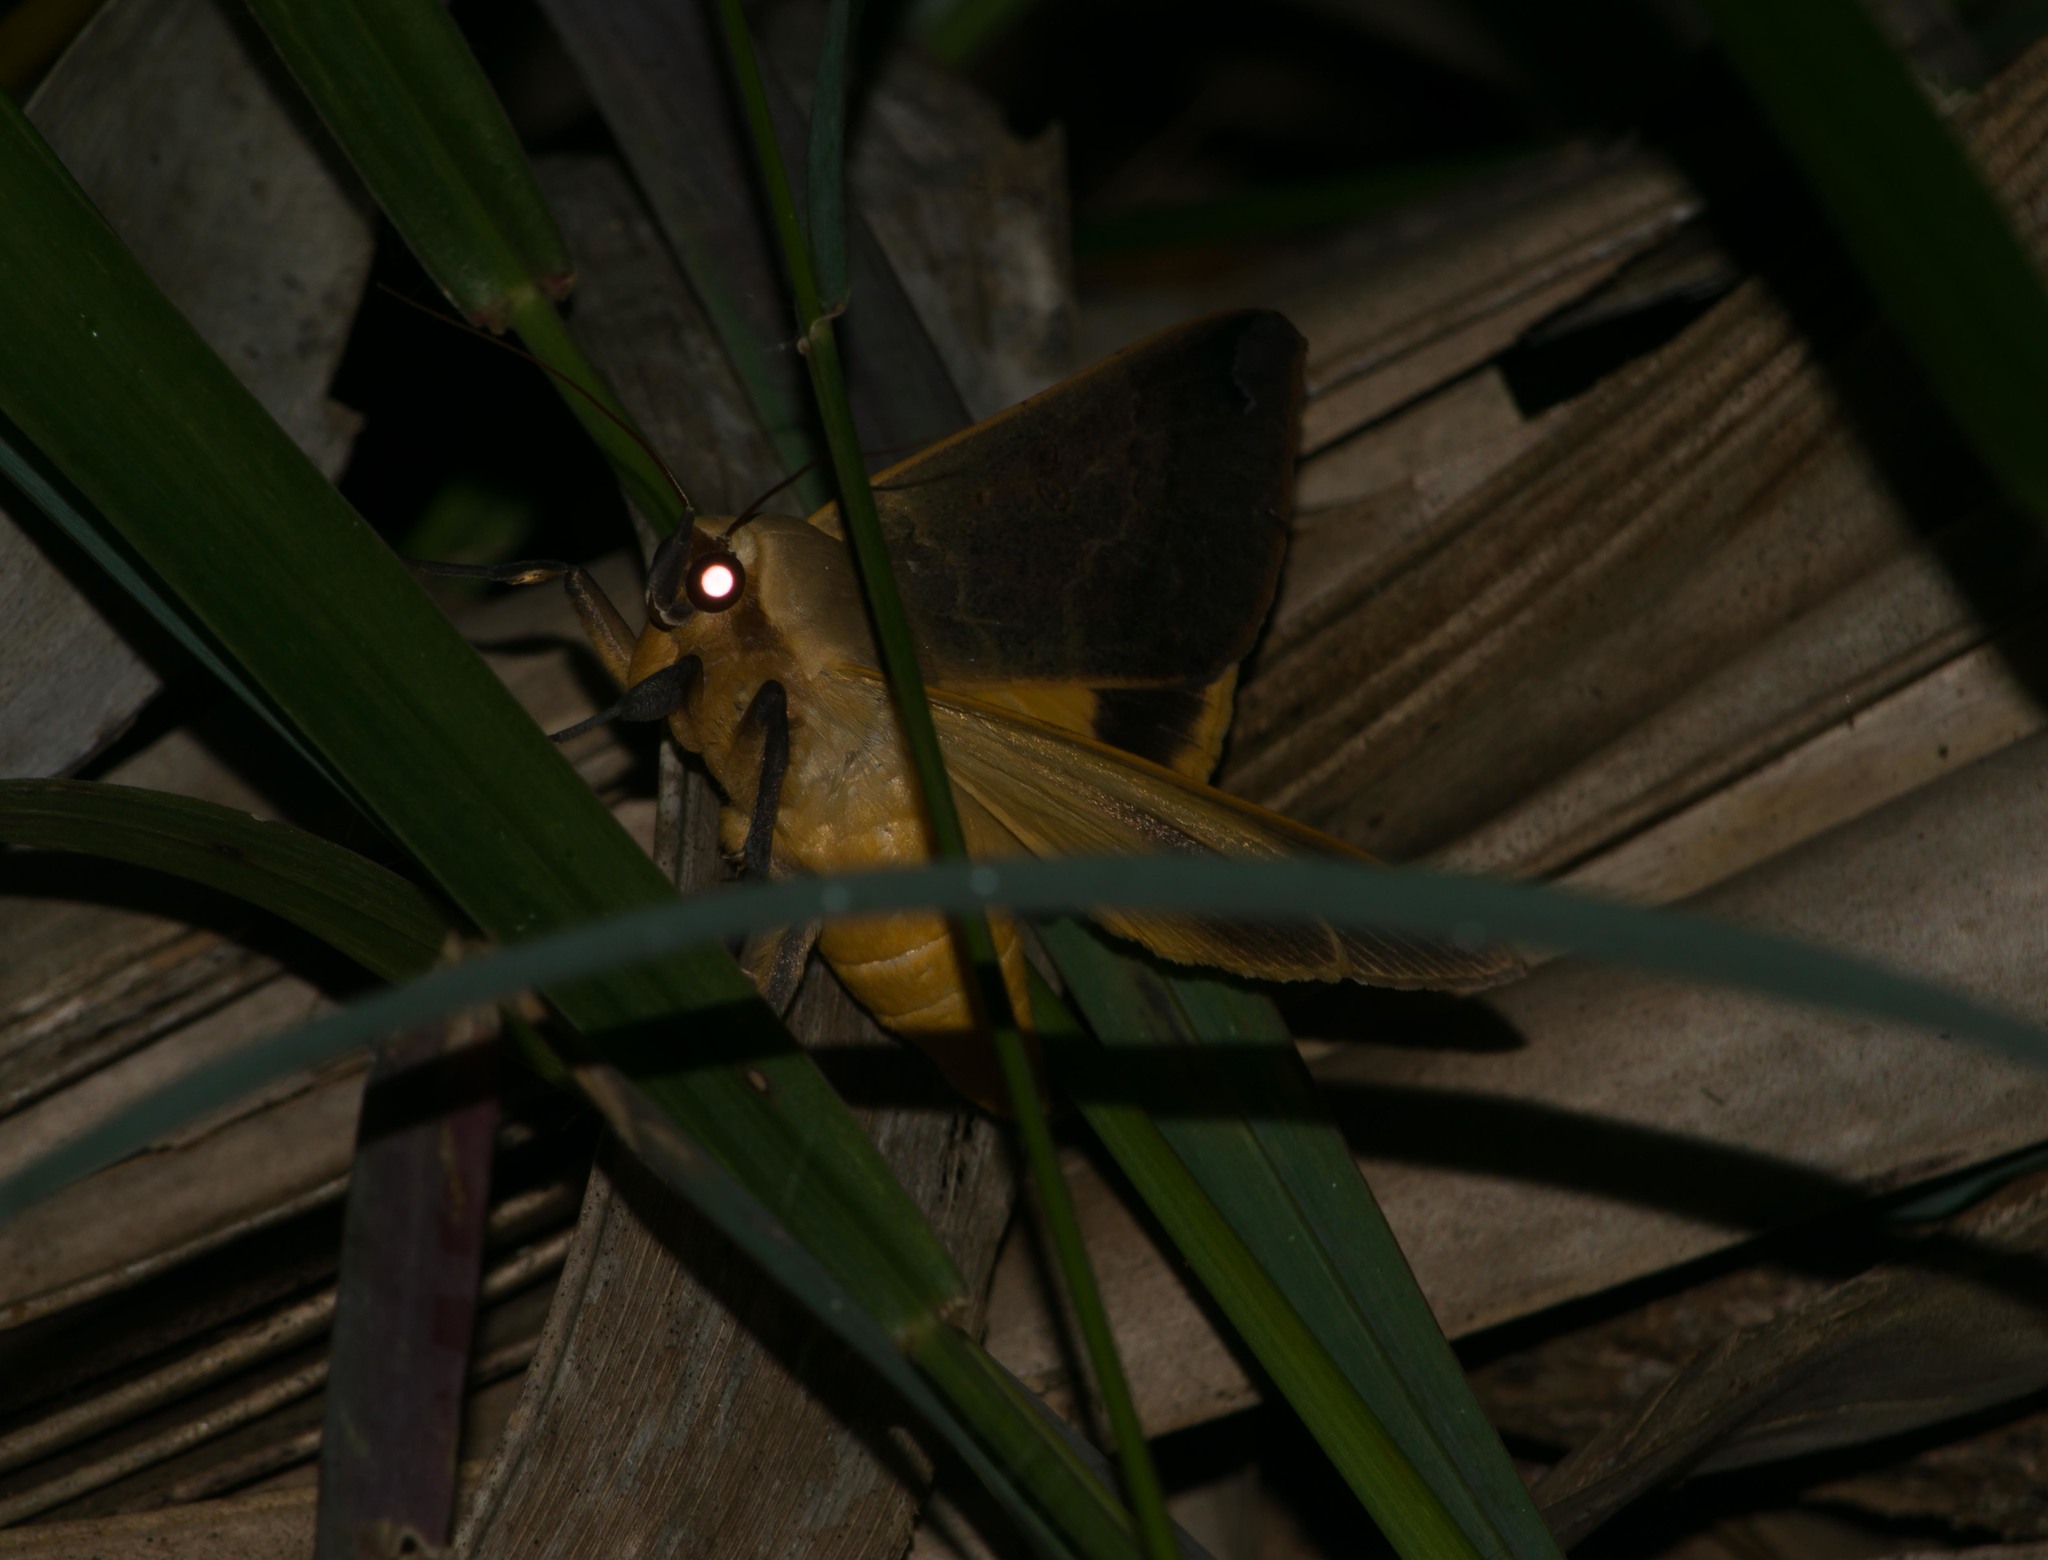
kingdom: Animalia
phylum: Arthropoda
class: Insecta
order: Lepidoptera
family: Erebidae
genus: Ophiusa
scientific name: Ophiusa disjungens
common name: Moth
